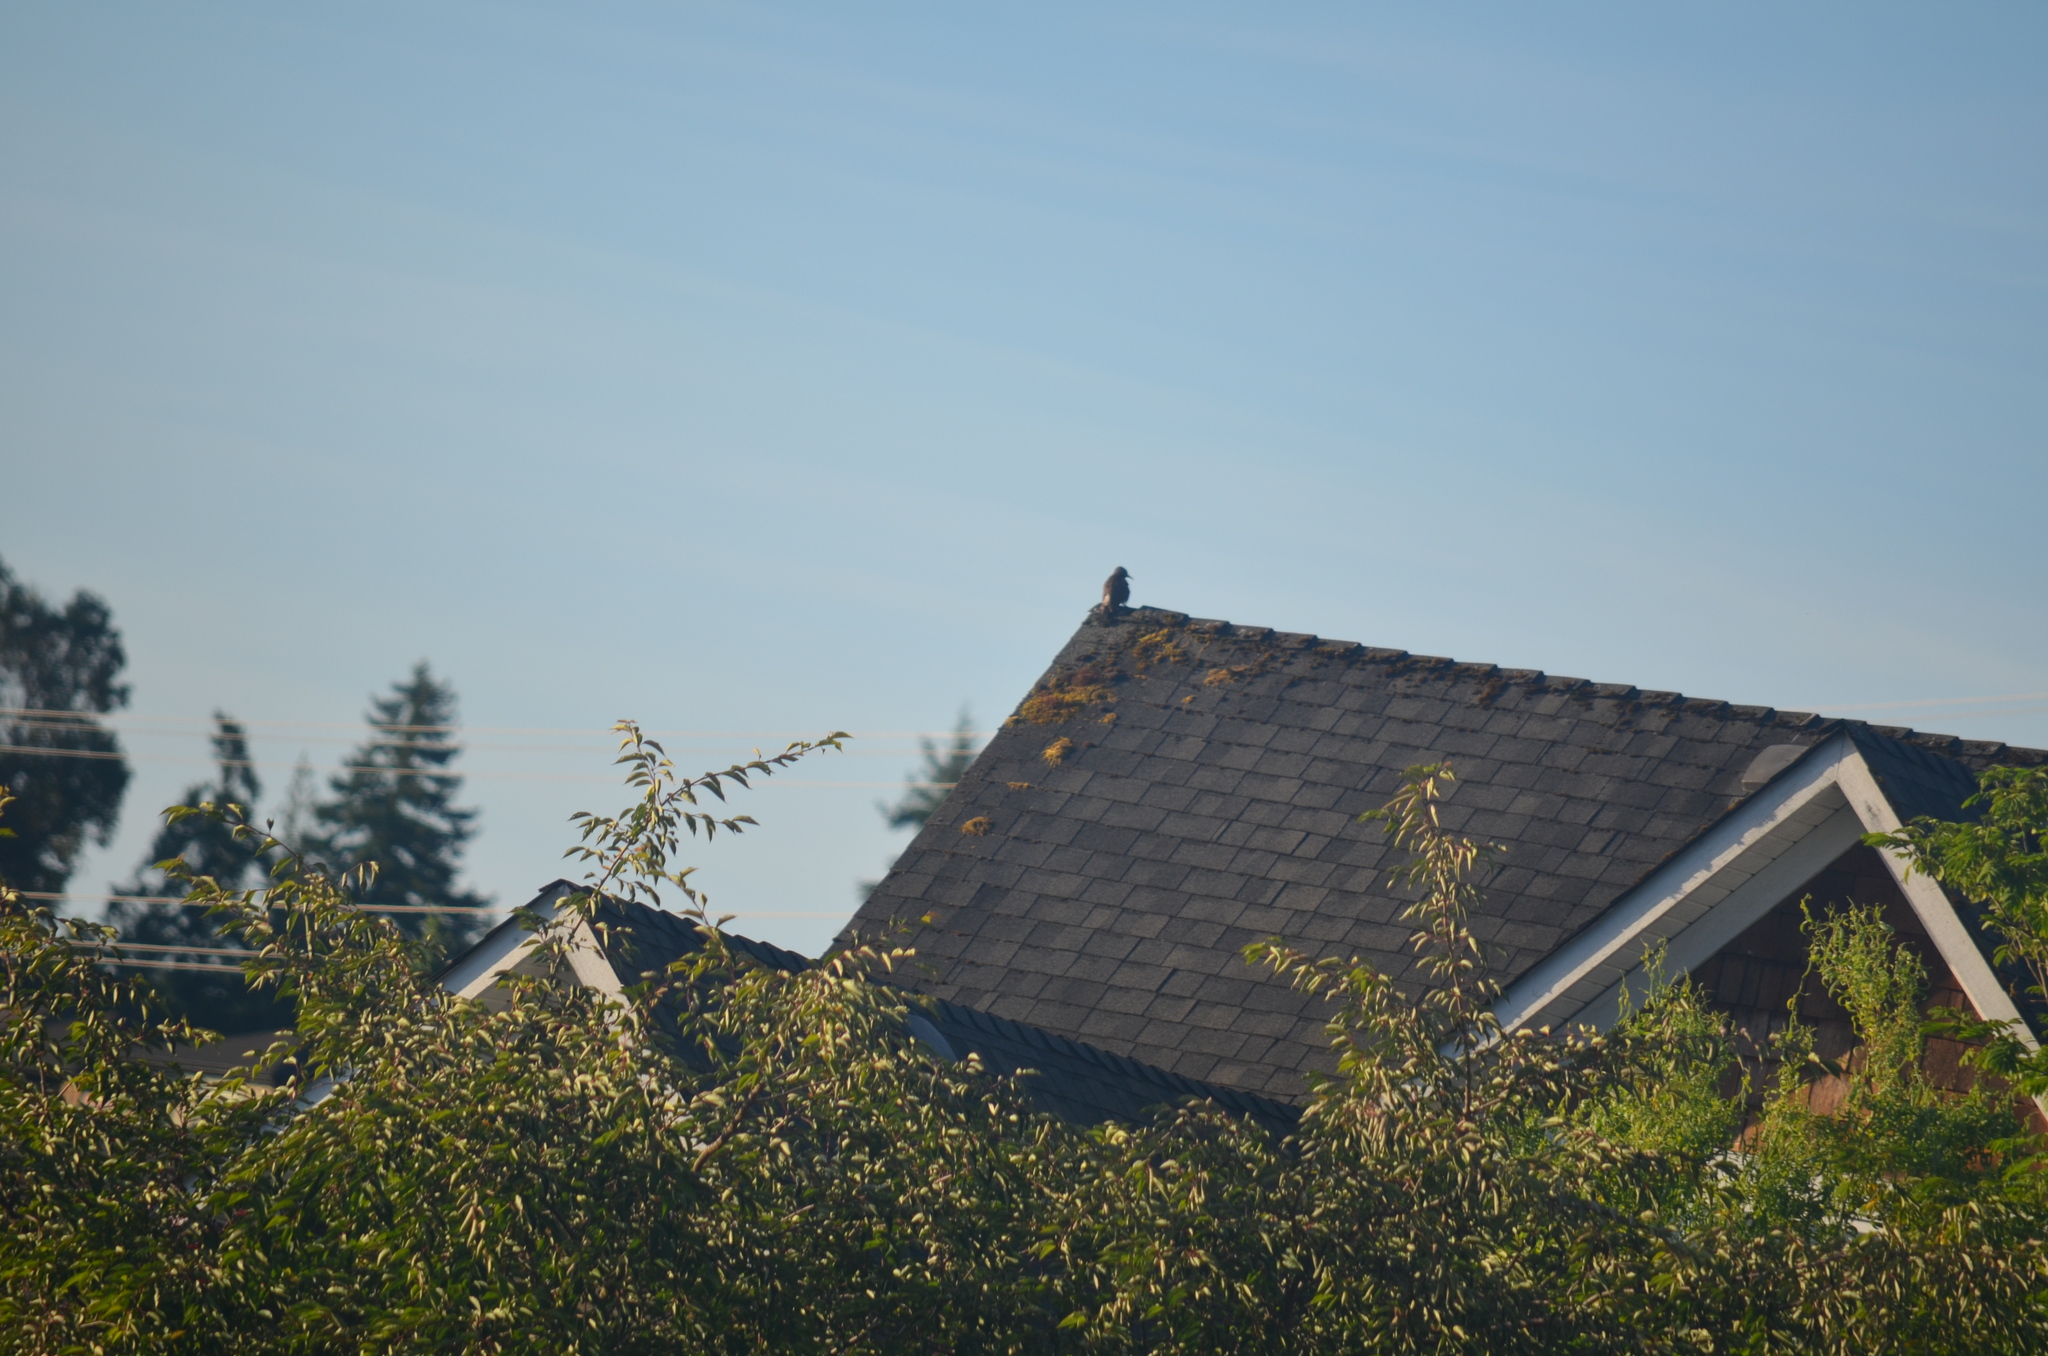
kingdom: Animalia
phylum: Chordata
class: Aves
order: Piciformes
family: Picidae
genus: Colaptes
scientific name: Colaptes auratus
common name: Northern flicker
